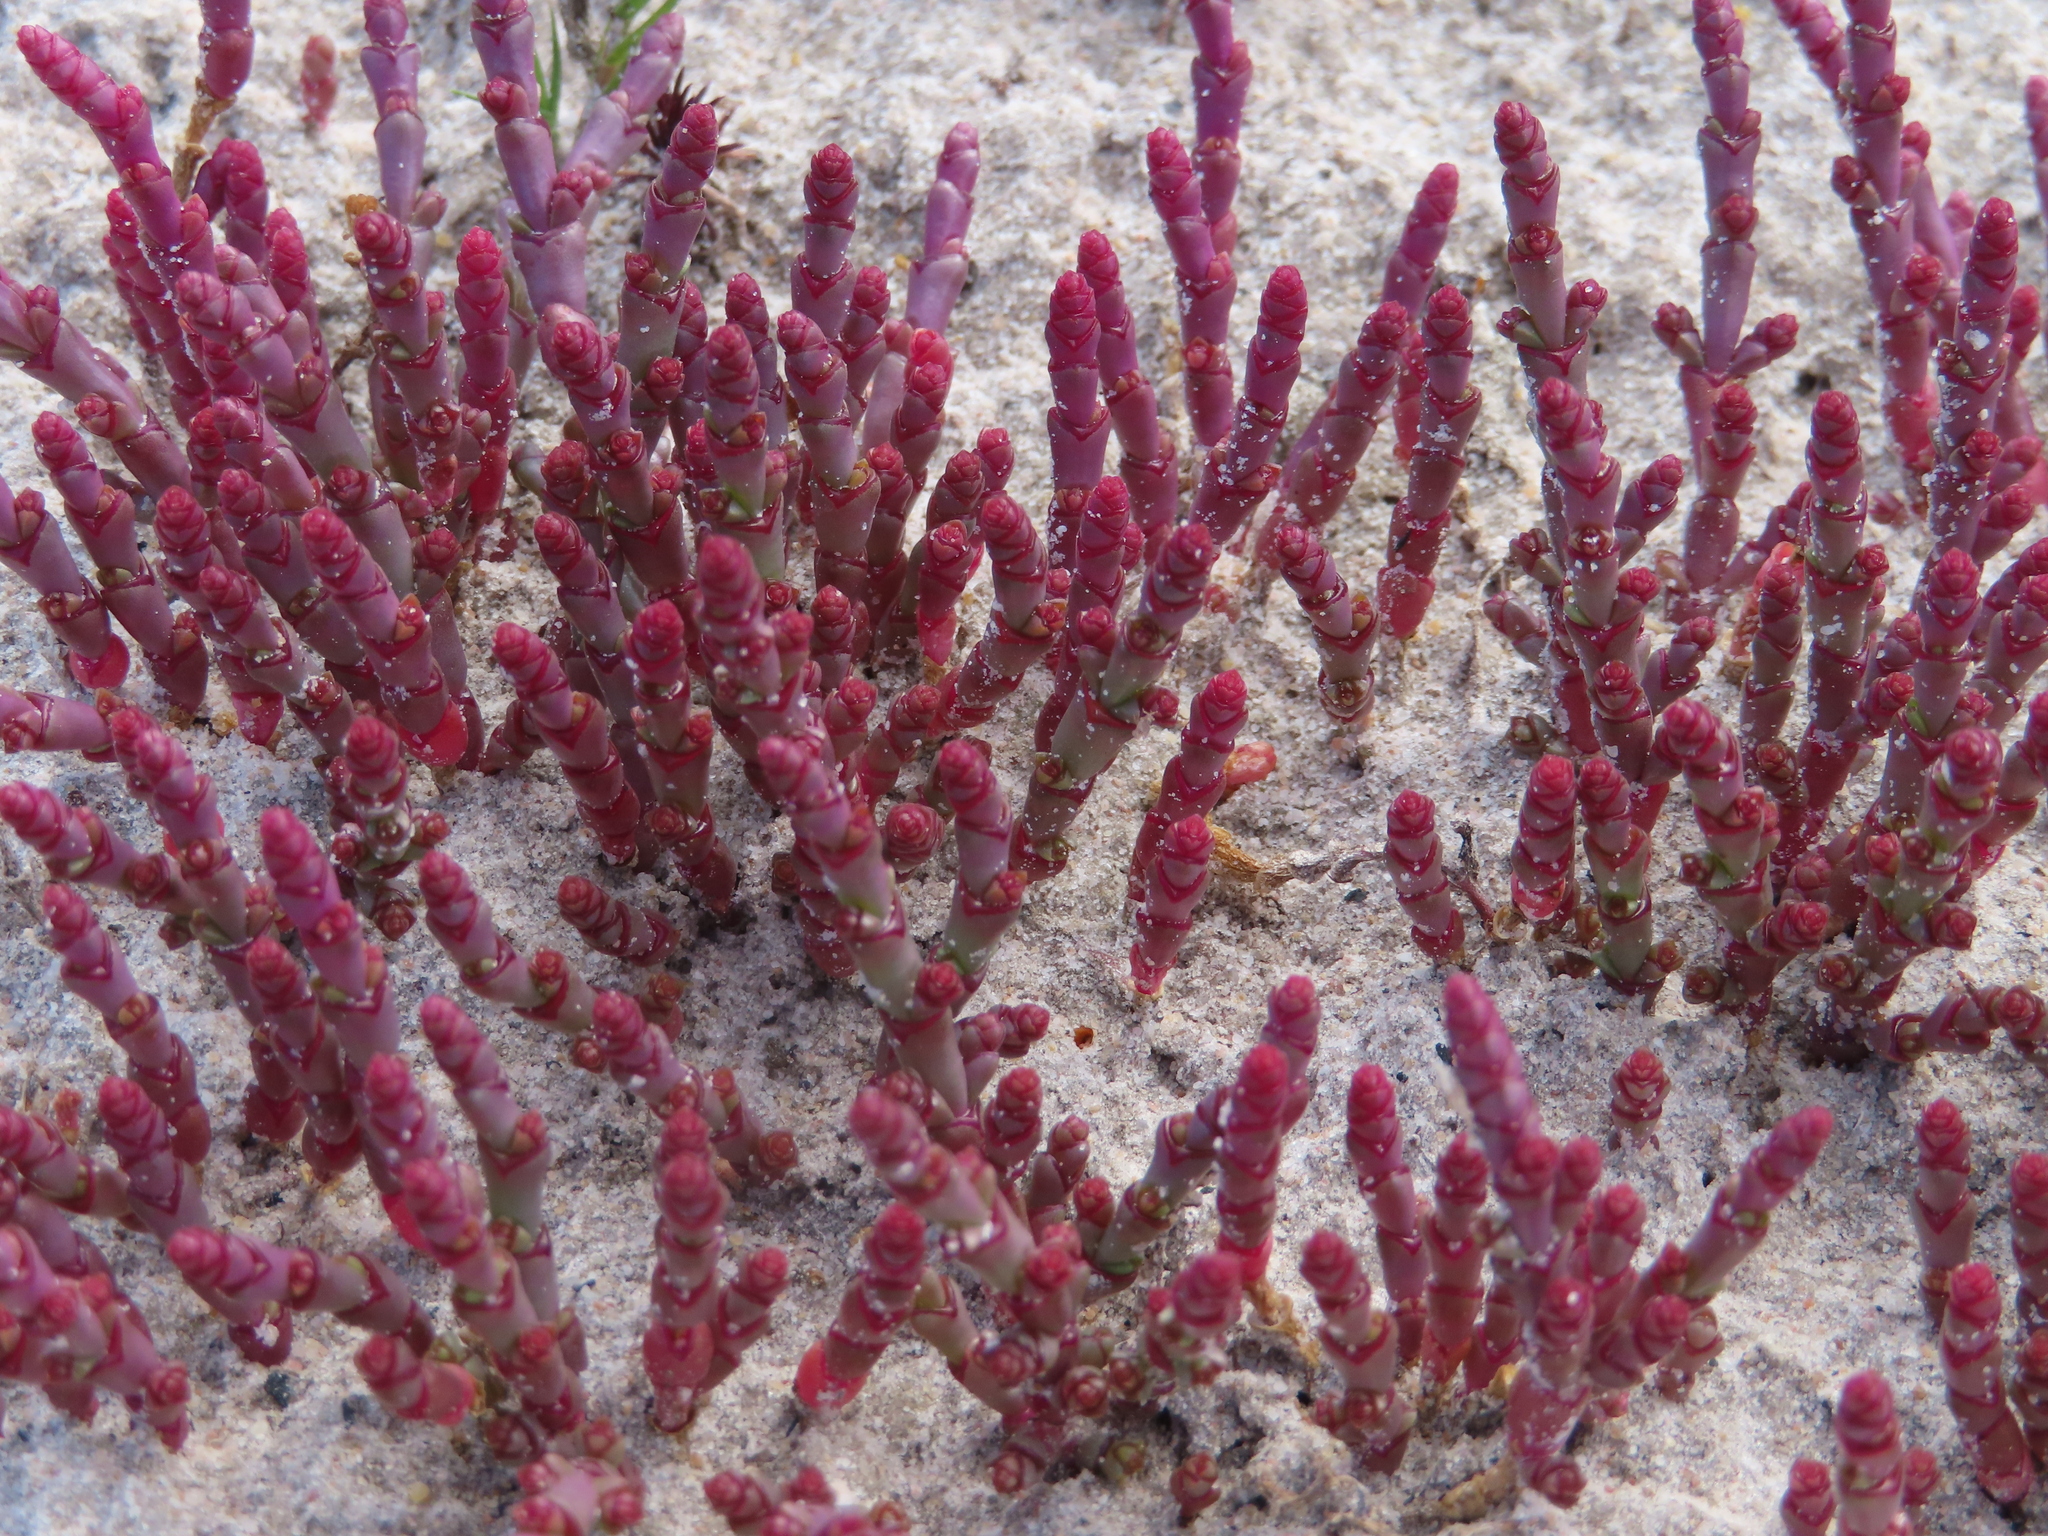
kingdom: Plantae
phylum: Tracheophyta
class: Magnoliopsida
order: Caryophyllales
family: Amaranthaceae
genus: Salicornia
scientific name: Salicornia natalensis
